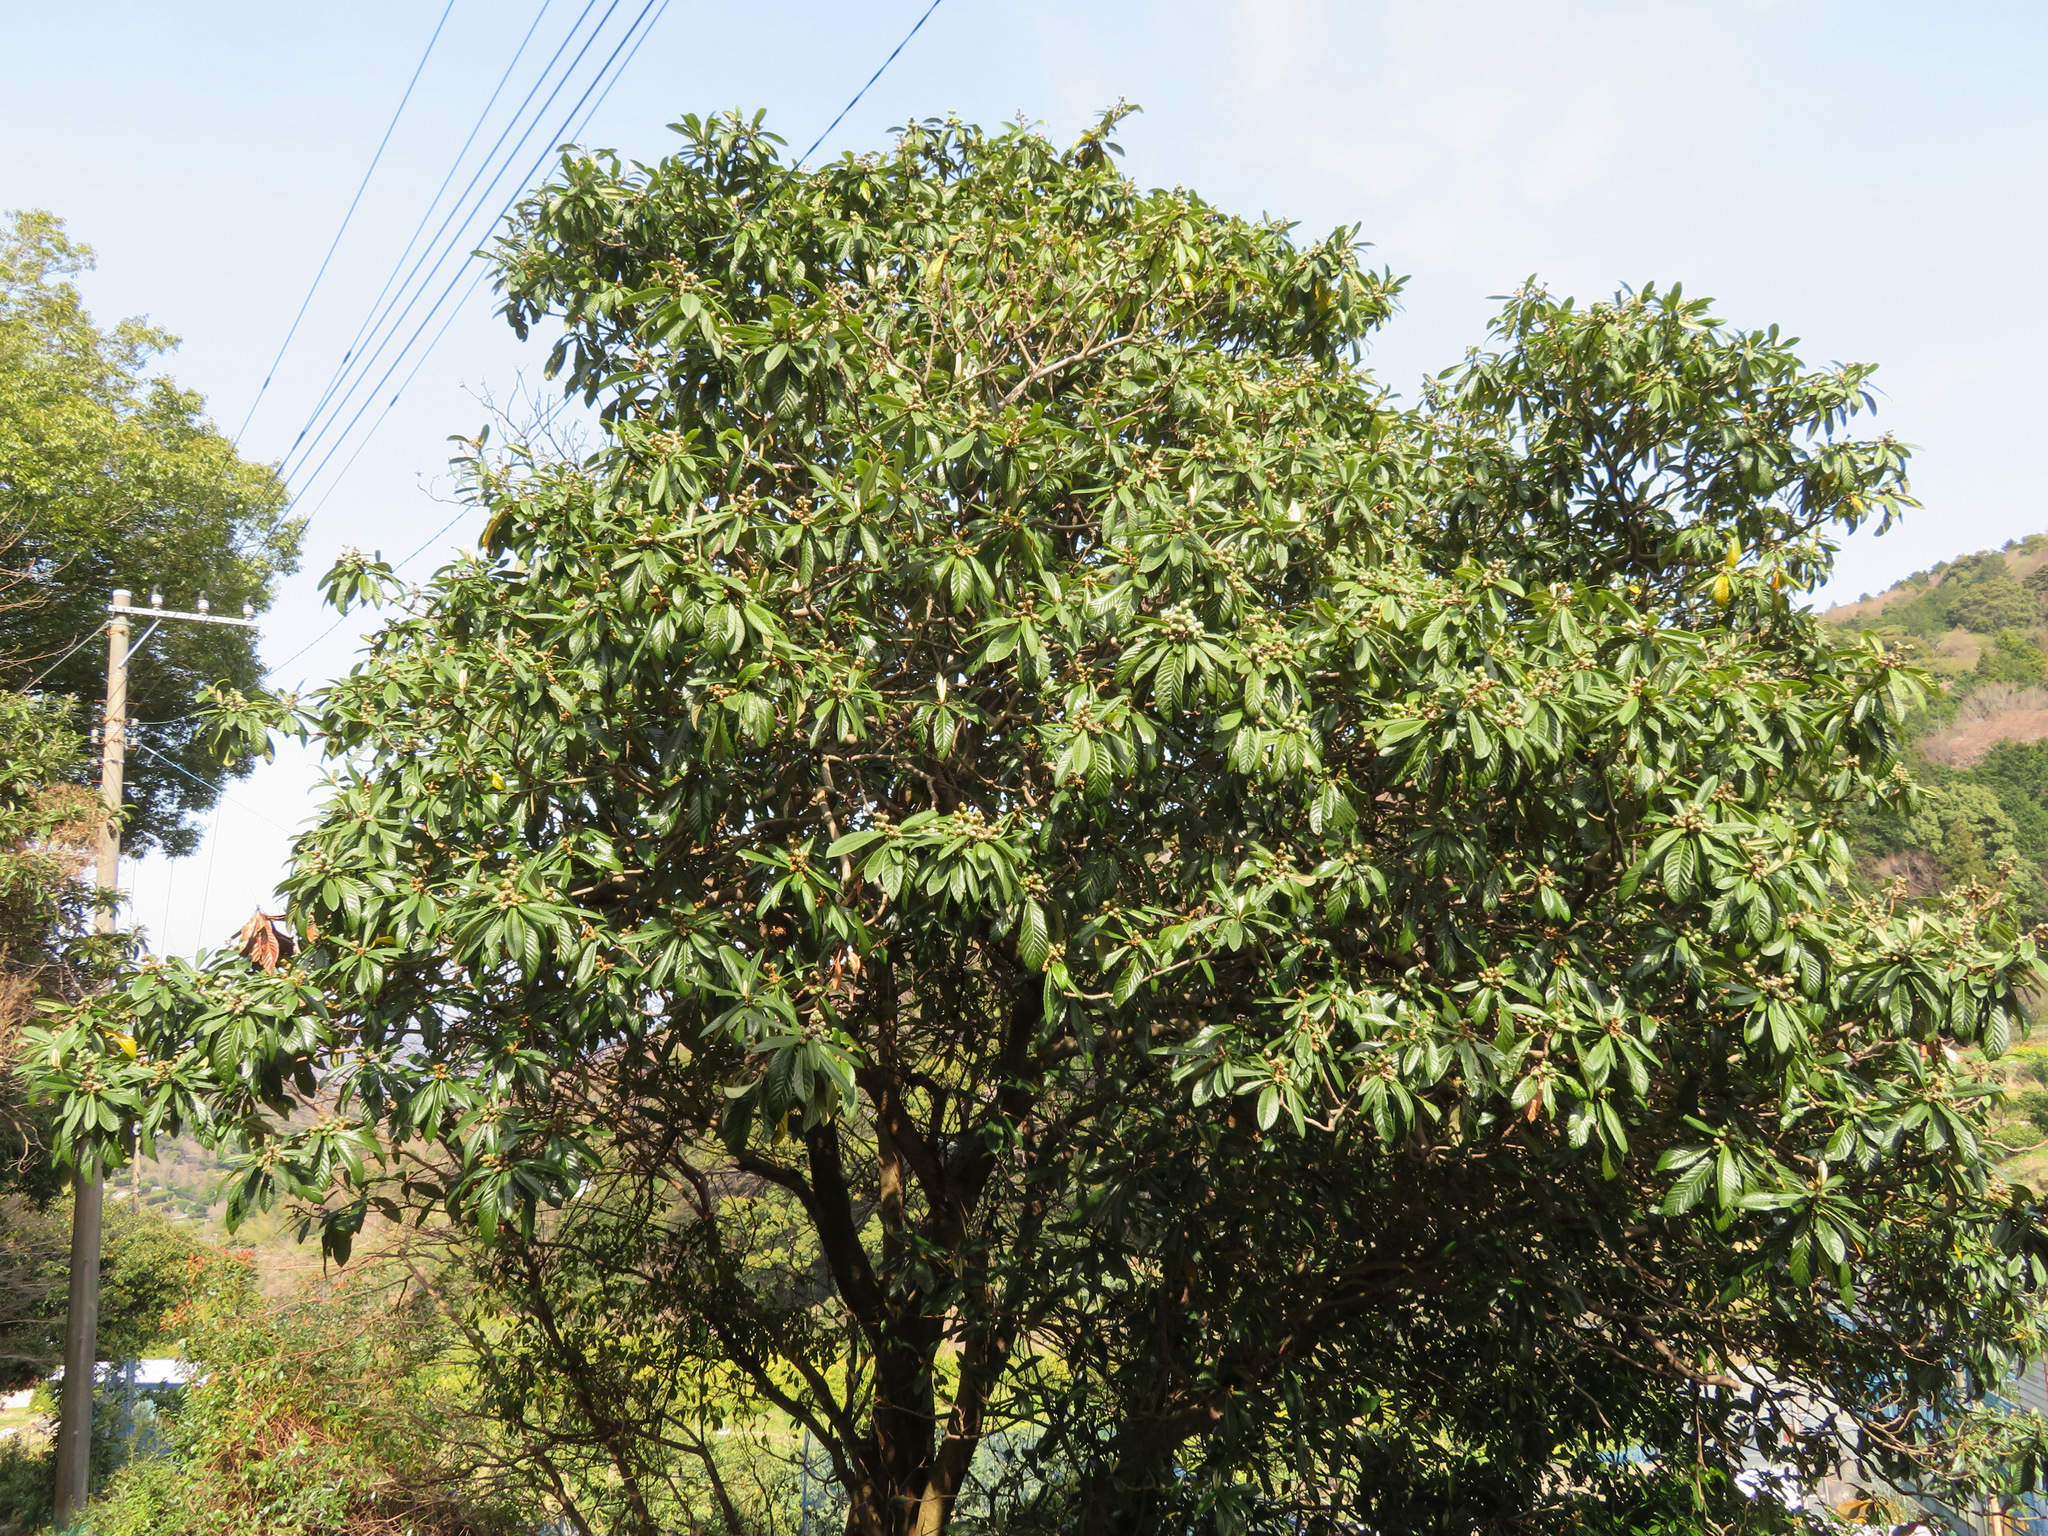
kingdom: Plantae
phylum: Tracheophyta
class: Magnoliopsida
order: Rosales
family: Rosaceae
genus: Rhaphiolepis
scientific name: Rhaphiolepis bibas
